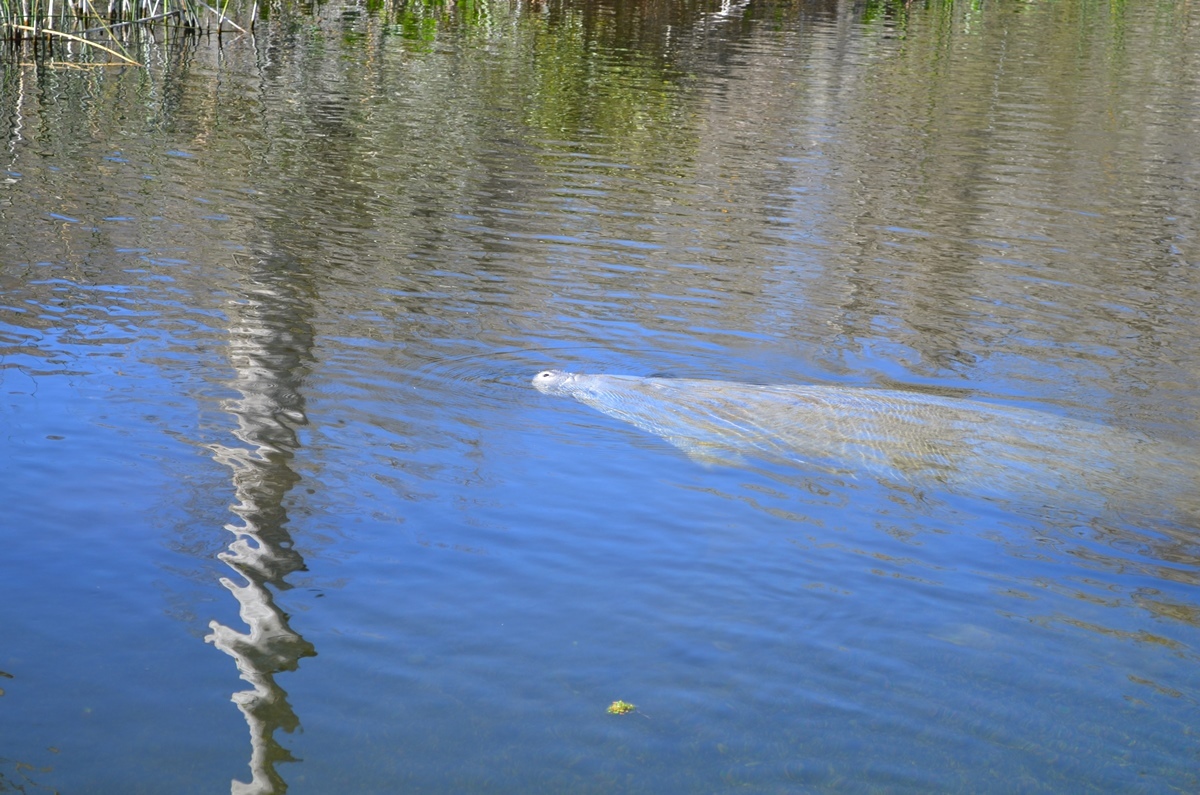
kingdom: Animalia
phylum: Chordata
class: Mammalia
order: Sirenia
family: Trichechidae
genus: Trichechus
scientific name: Trichechus manatus
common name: West indian manatee
